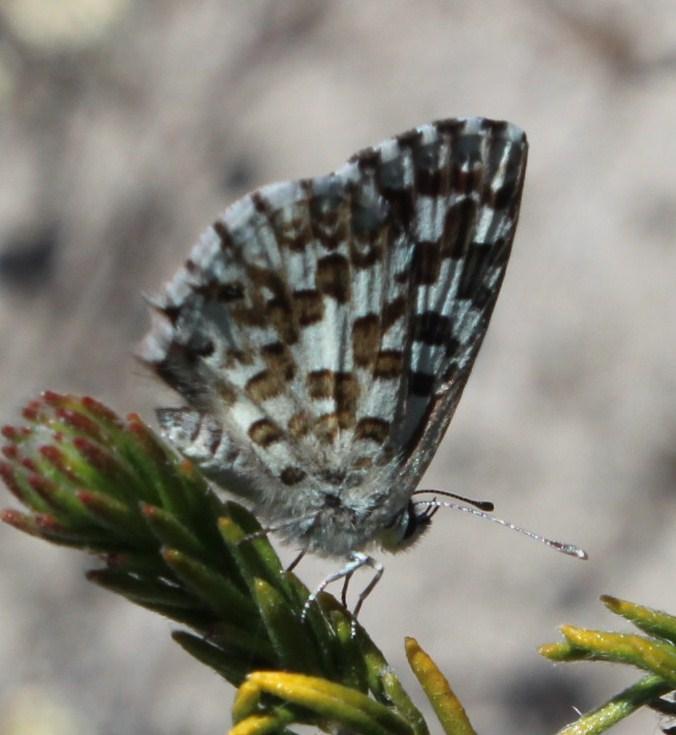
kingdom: Animalia
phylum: Arthropoda
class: Insecta
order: Lepidoptera
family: Lycaenidae
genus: Tarucus
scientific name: Tarucus thespis
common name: Vivid dotted blue
